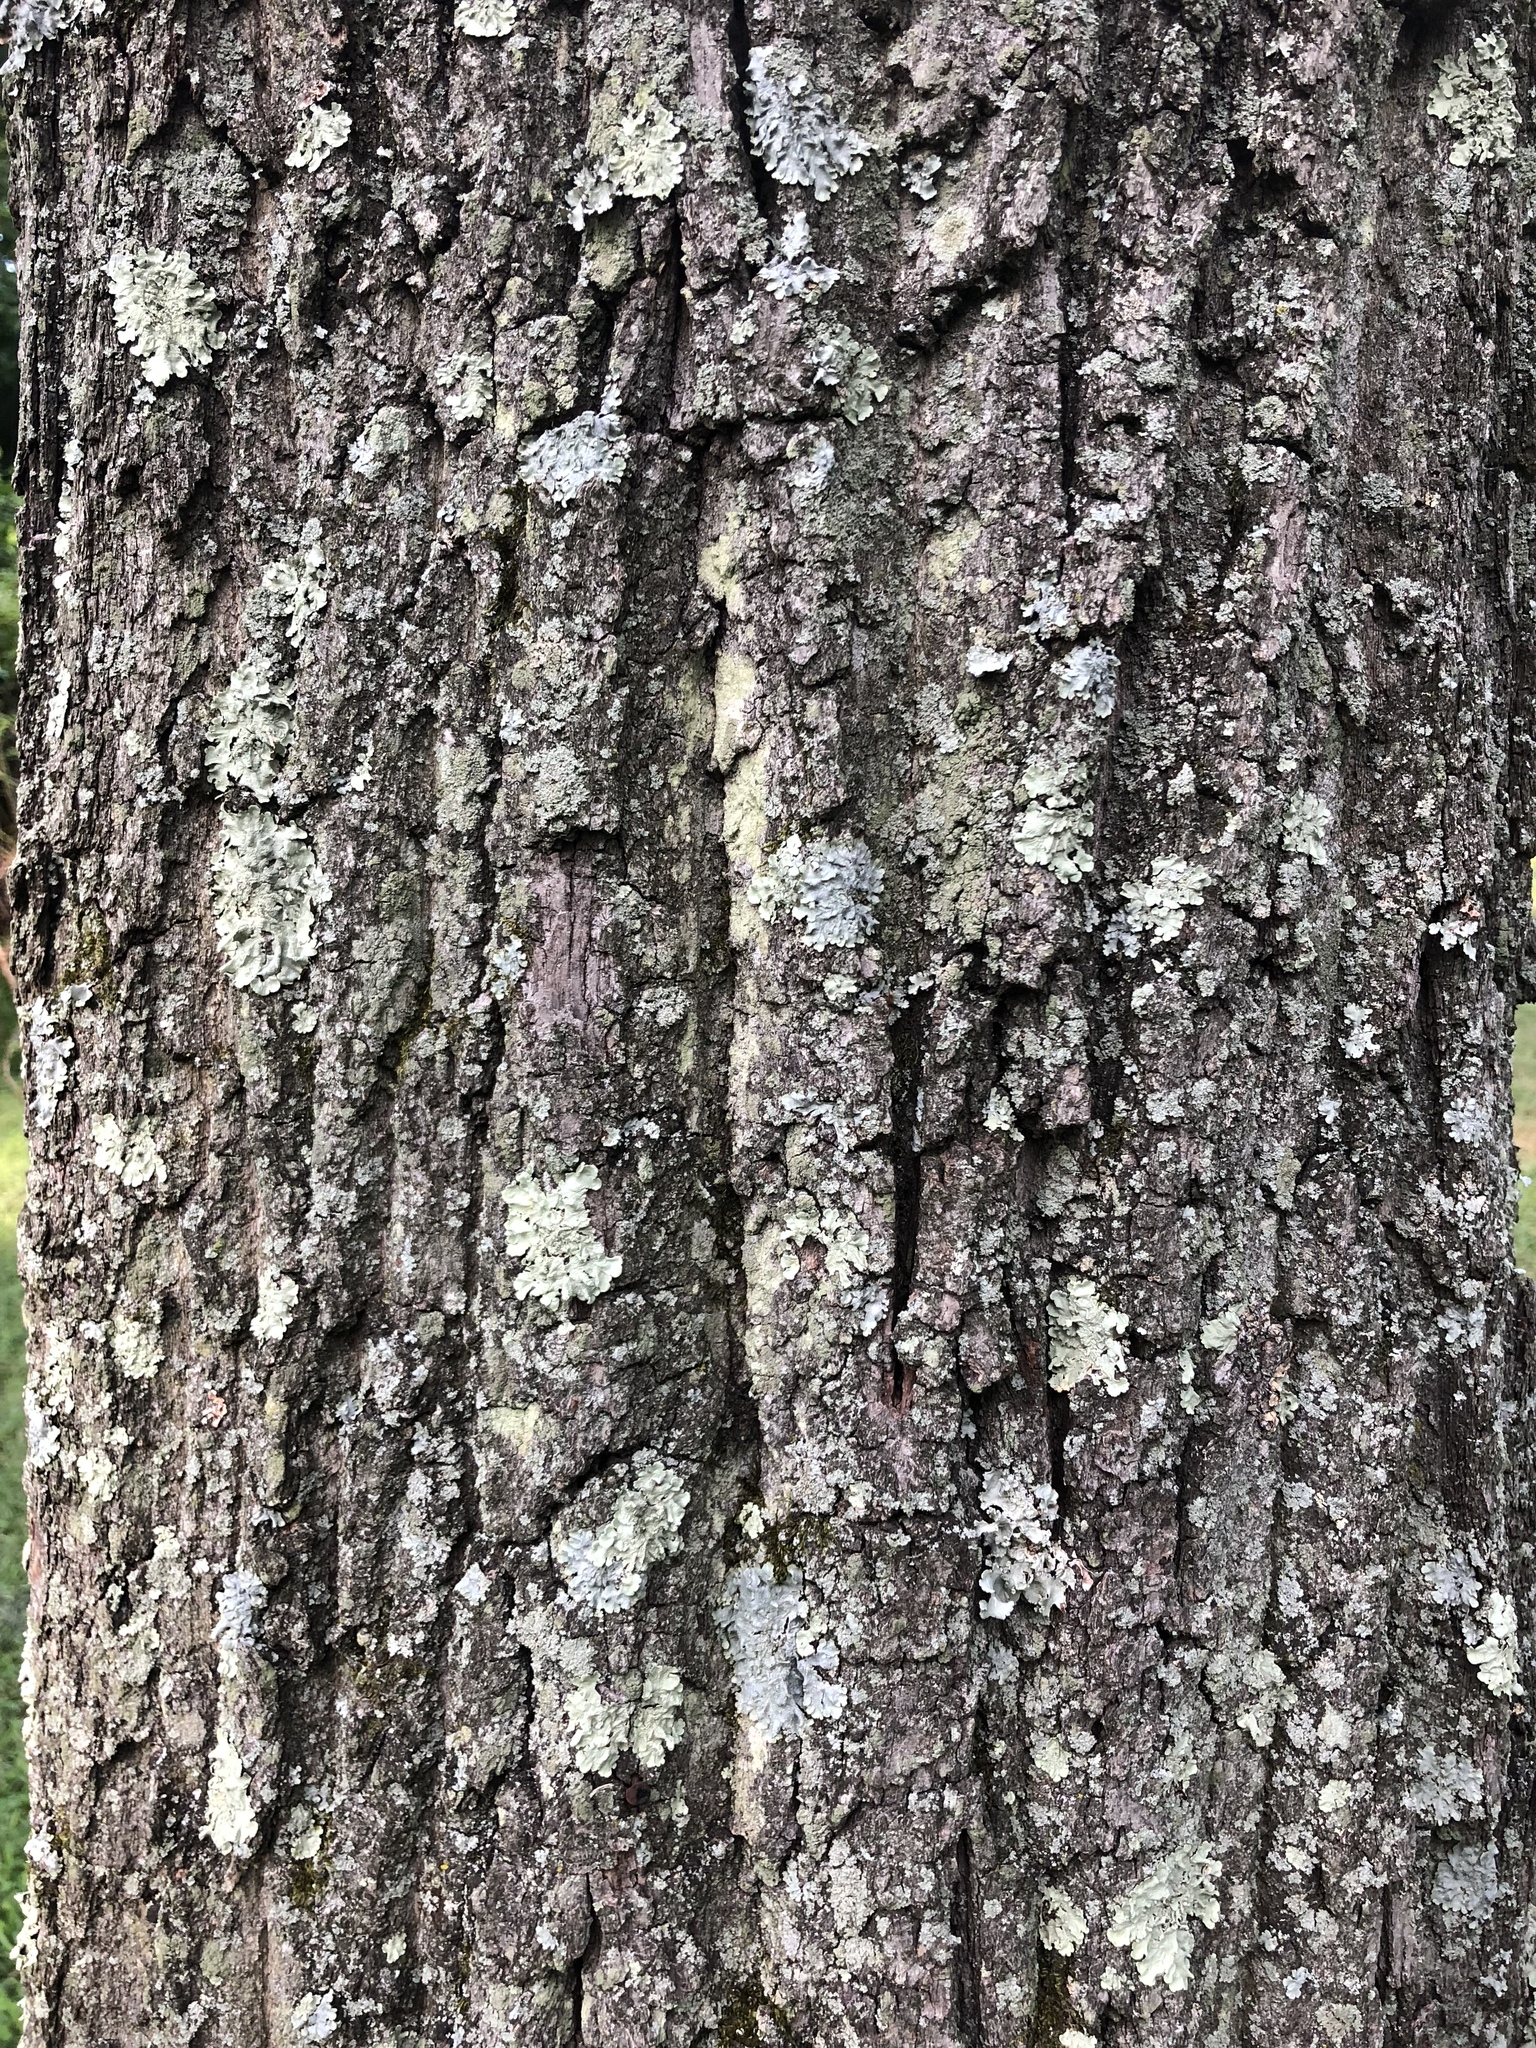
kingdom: Plantae
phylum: Tracheophyta
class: Magnoliopsida
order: Fagales
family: Fagaceae
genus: Quercus
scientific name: Quercus montana
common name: Chestnut oak
